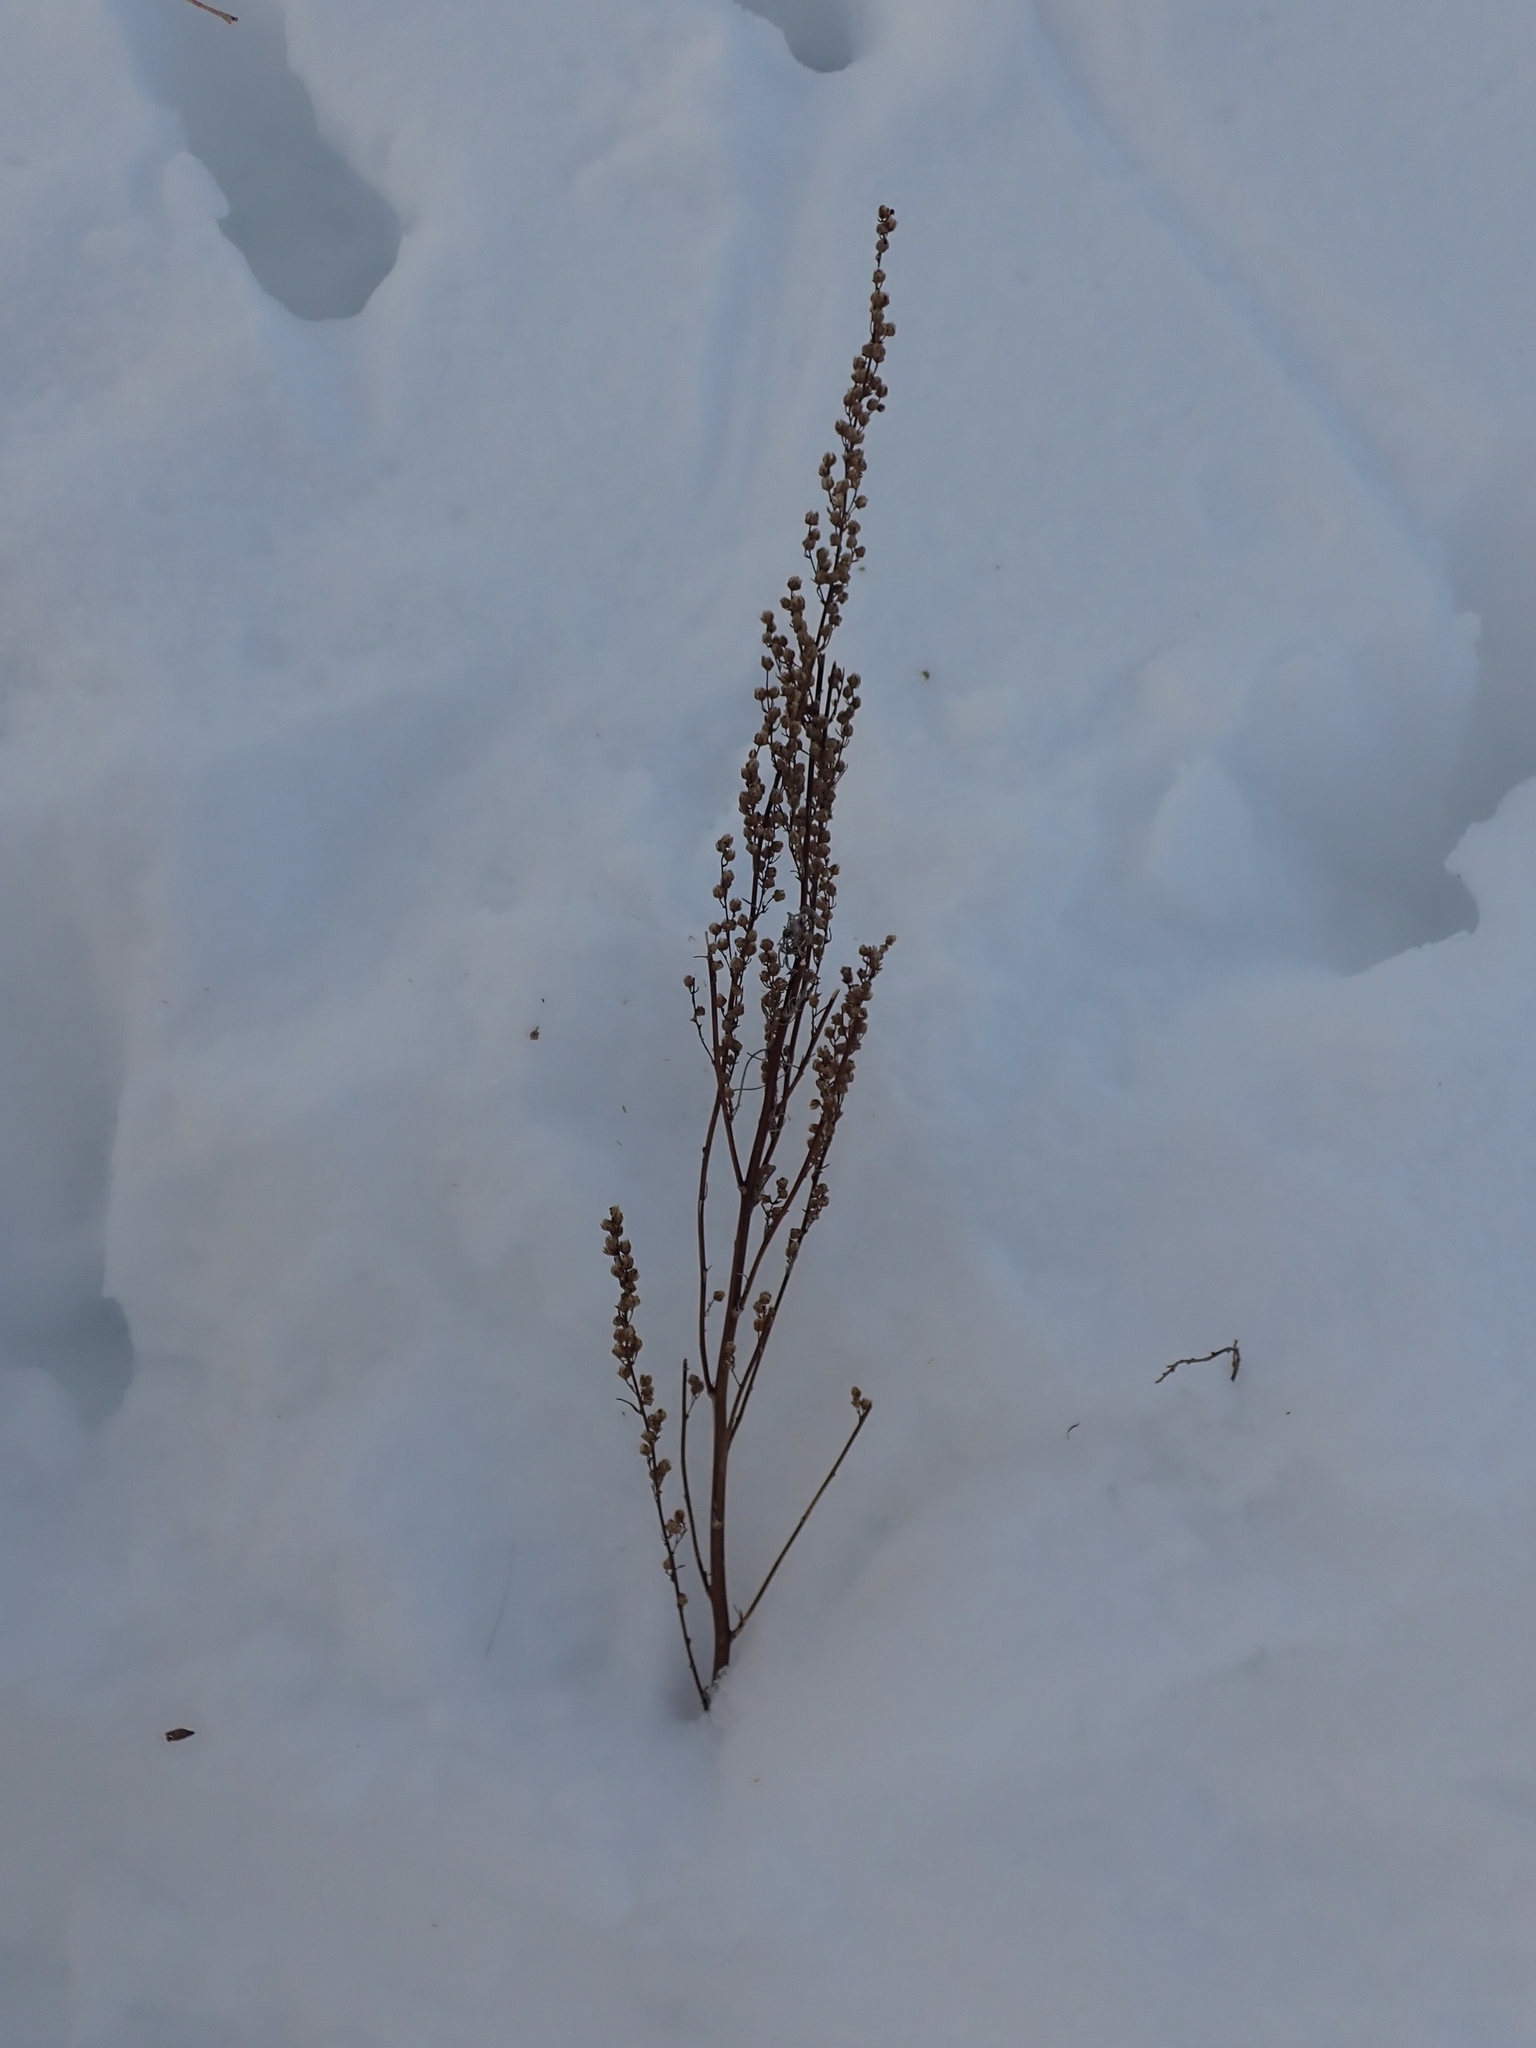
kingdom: Plantae
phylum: Tracheophyta
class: Magnoliopsida
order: Asterales
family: Asteraceae
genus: Artemisia
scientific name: Artemisia campestris
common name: Field wormwood
